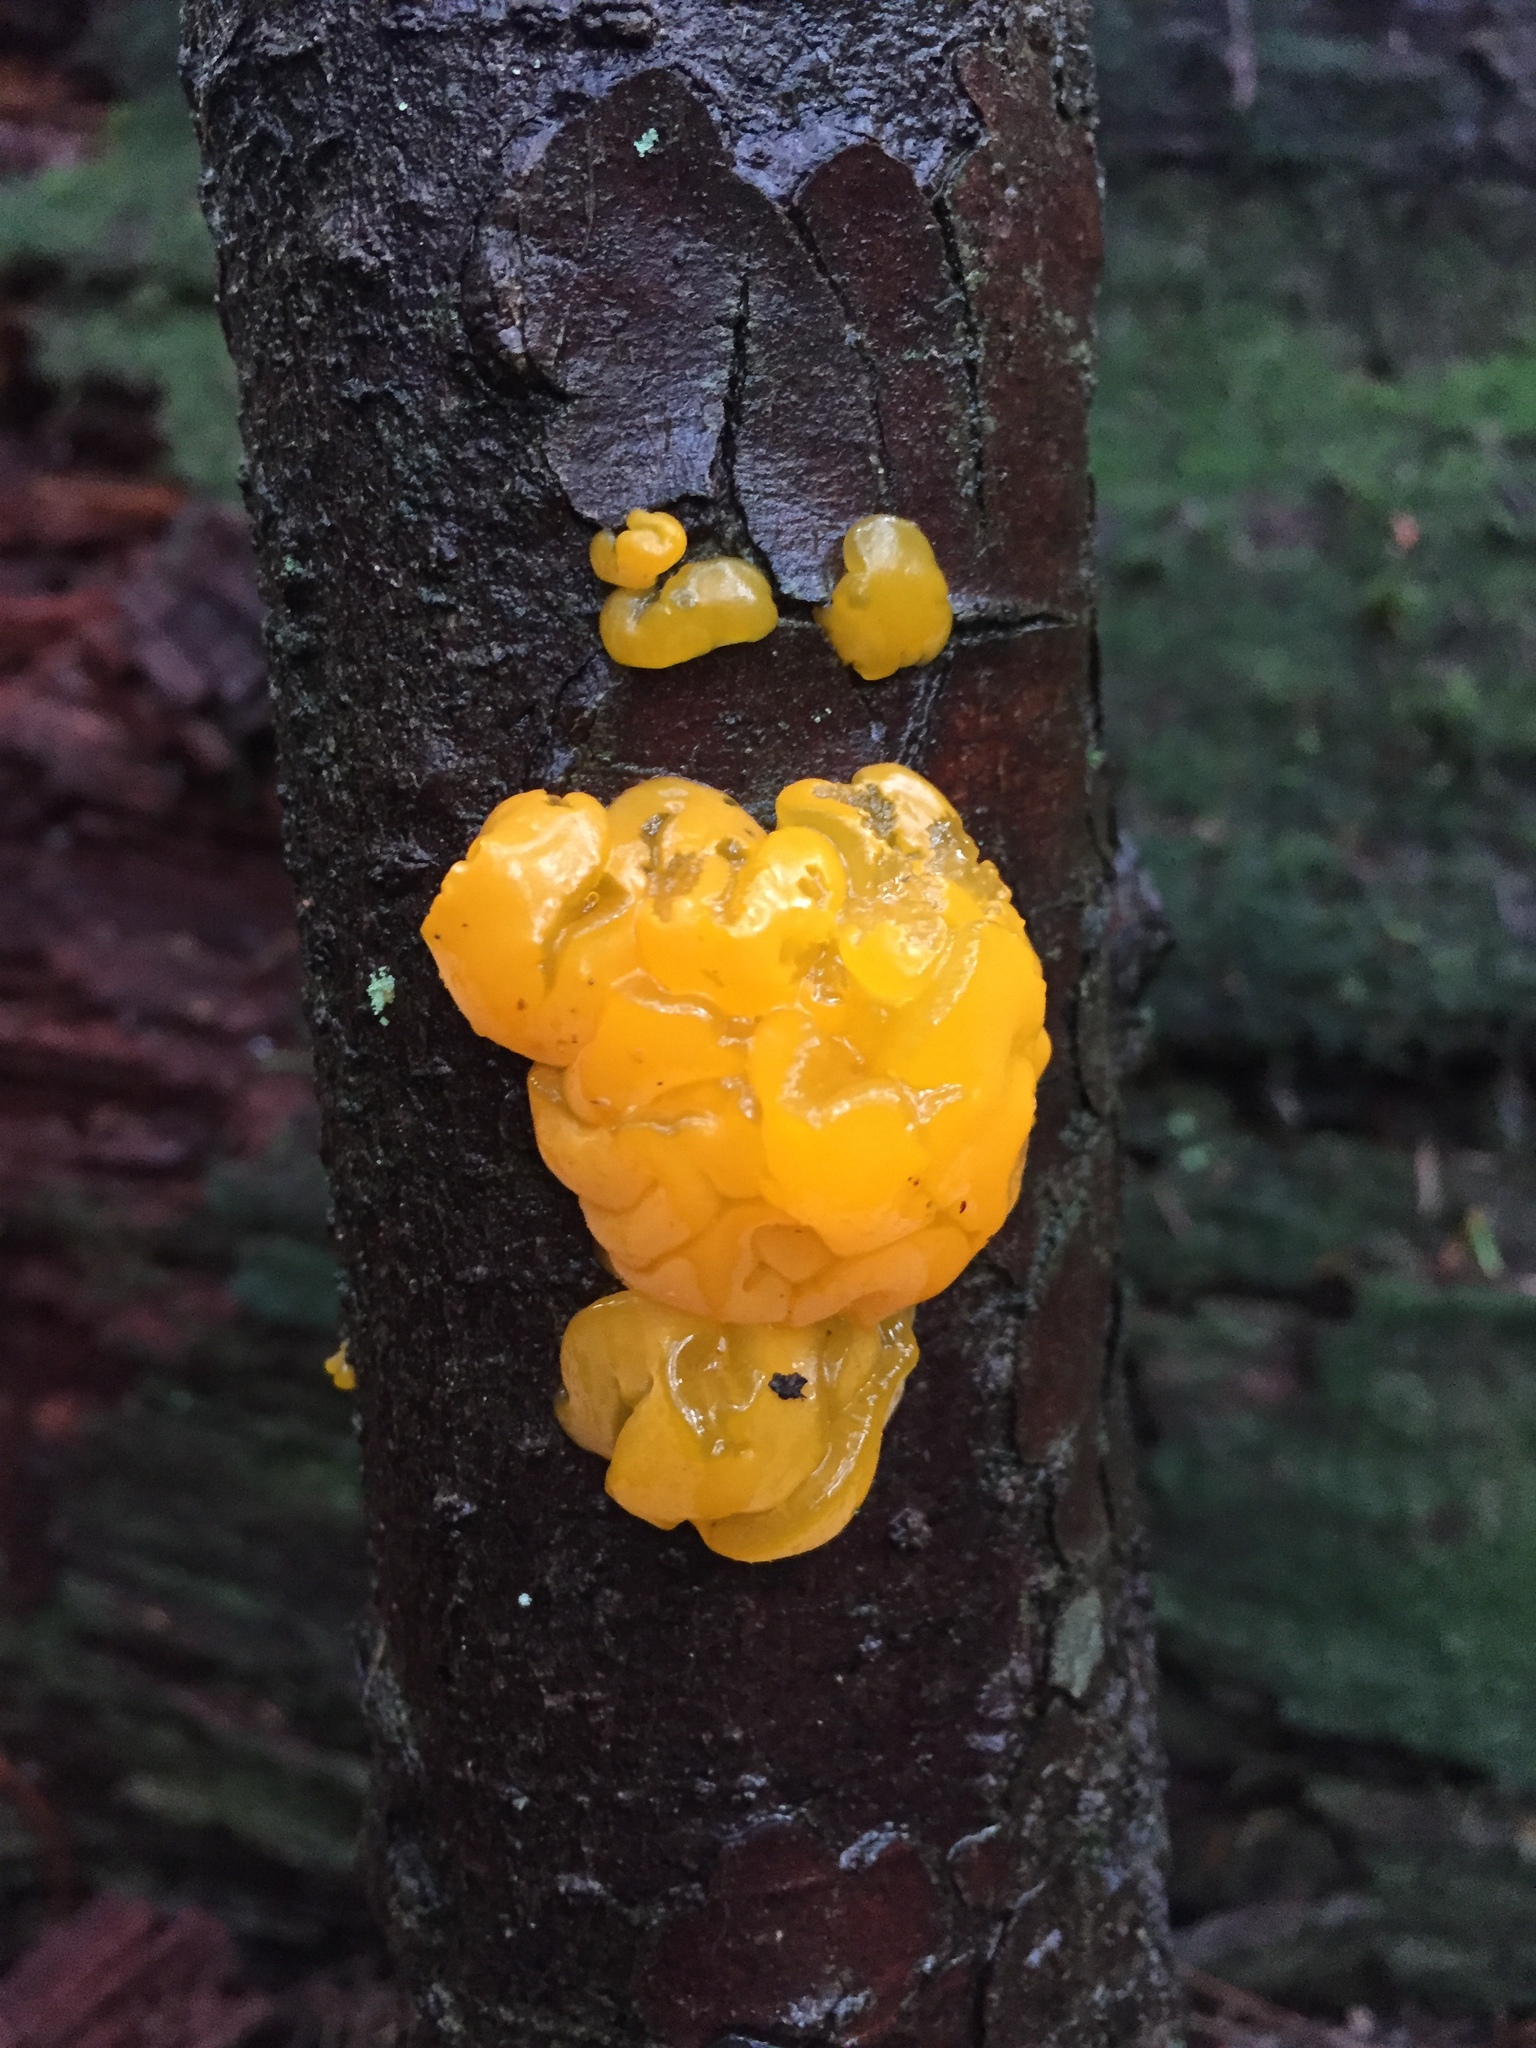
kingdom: Fungi
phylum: Basidiomycota
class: Dacrymycetes
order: Dacrymycetales
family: Dacrymycetaceae
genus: Dacrymyces
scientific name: Dacrymyces chrysospermus
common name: Orange jelly spot
